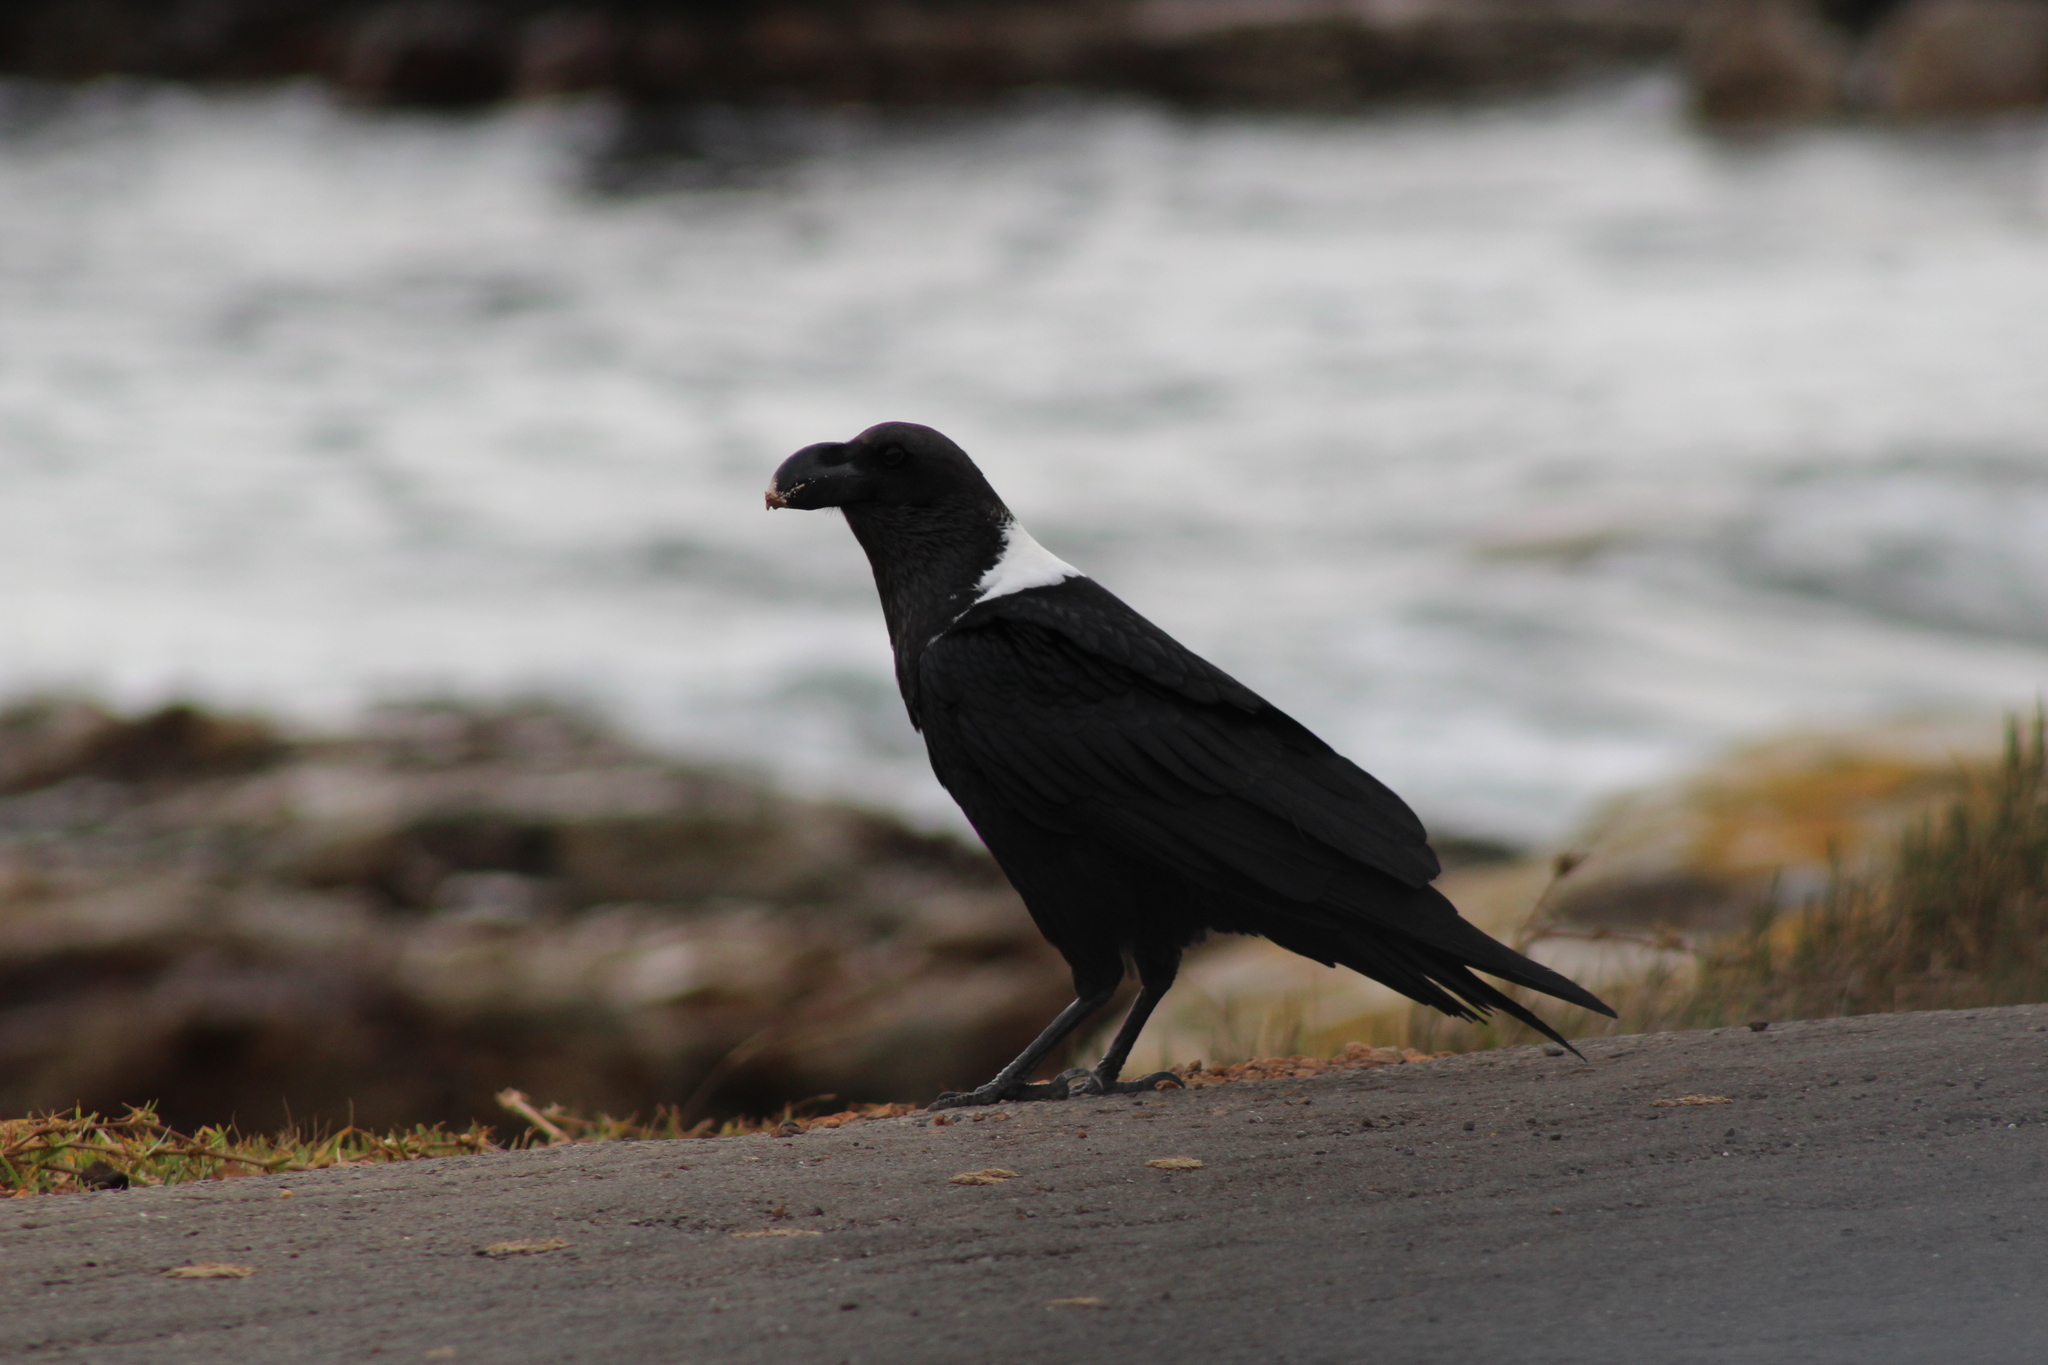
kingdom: Animalia
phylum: Chordata
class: Aves
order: Passeriformes
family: Corvidae
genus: Corvus
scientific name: Corvus albicollis
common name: White-necked raven
